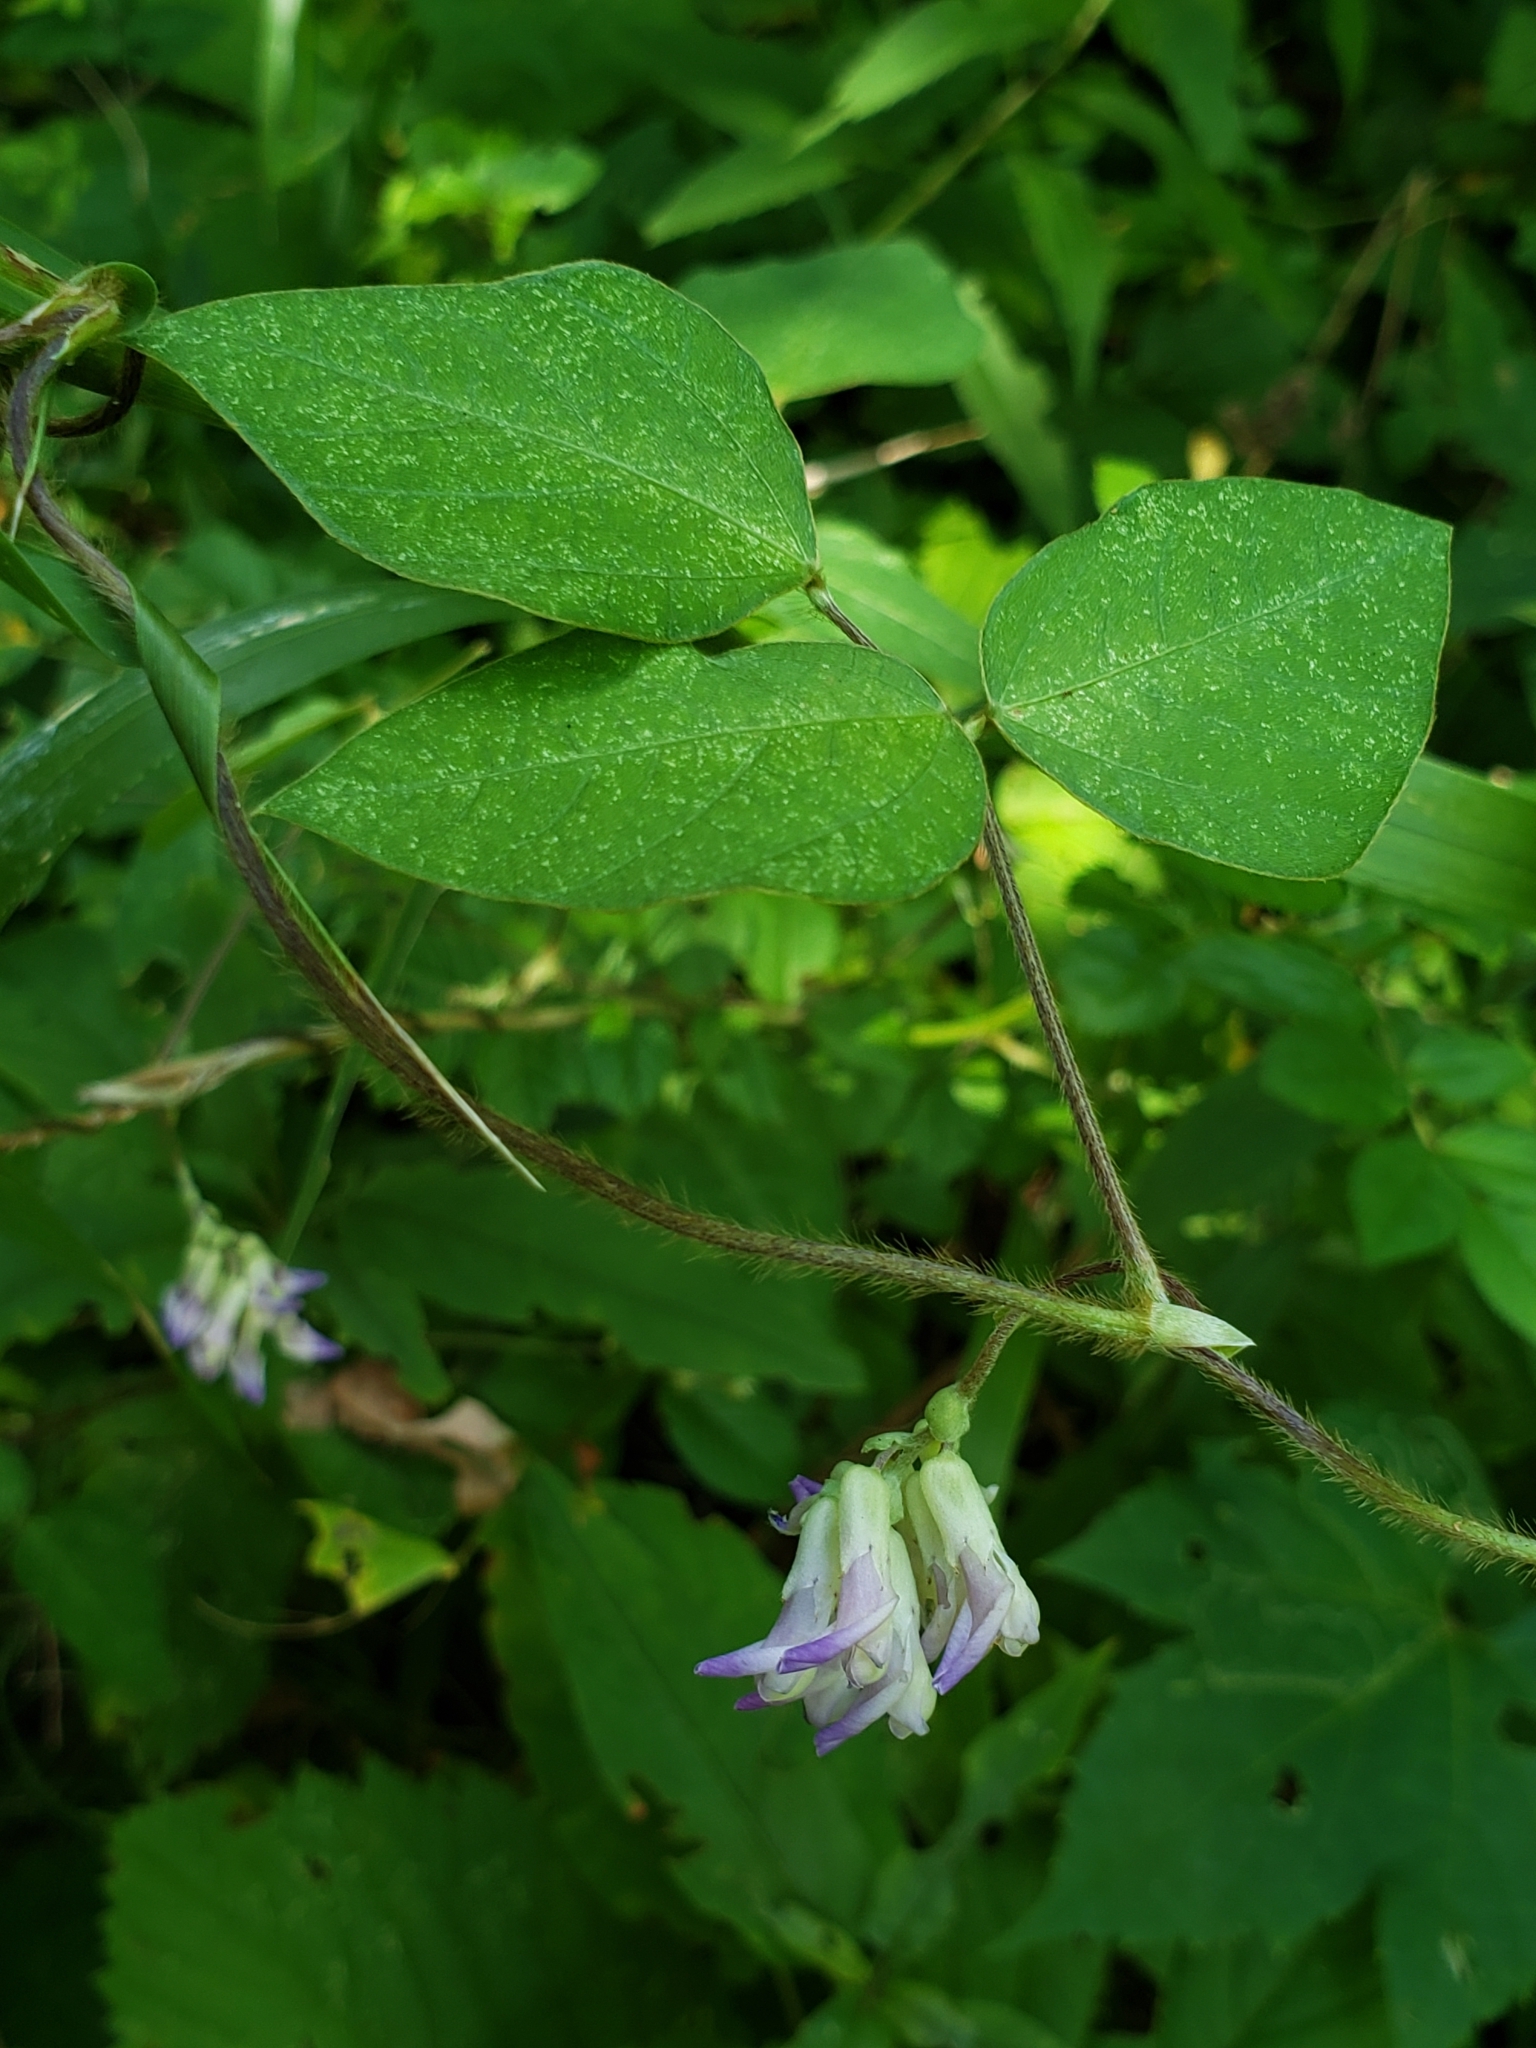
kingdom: Plantae
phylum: Tracheophyta
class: Magnoliopsida
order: Fabales
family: Fabaceae
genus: Amphicarpaea
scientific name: Amphicarpaea bracteata
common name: American hog peanut
